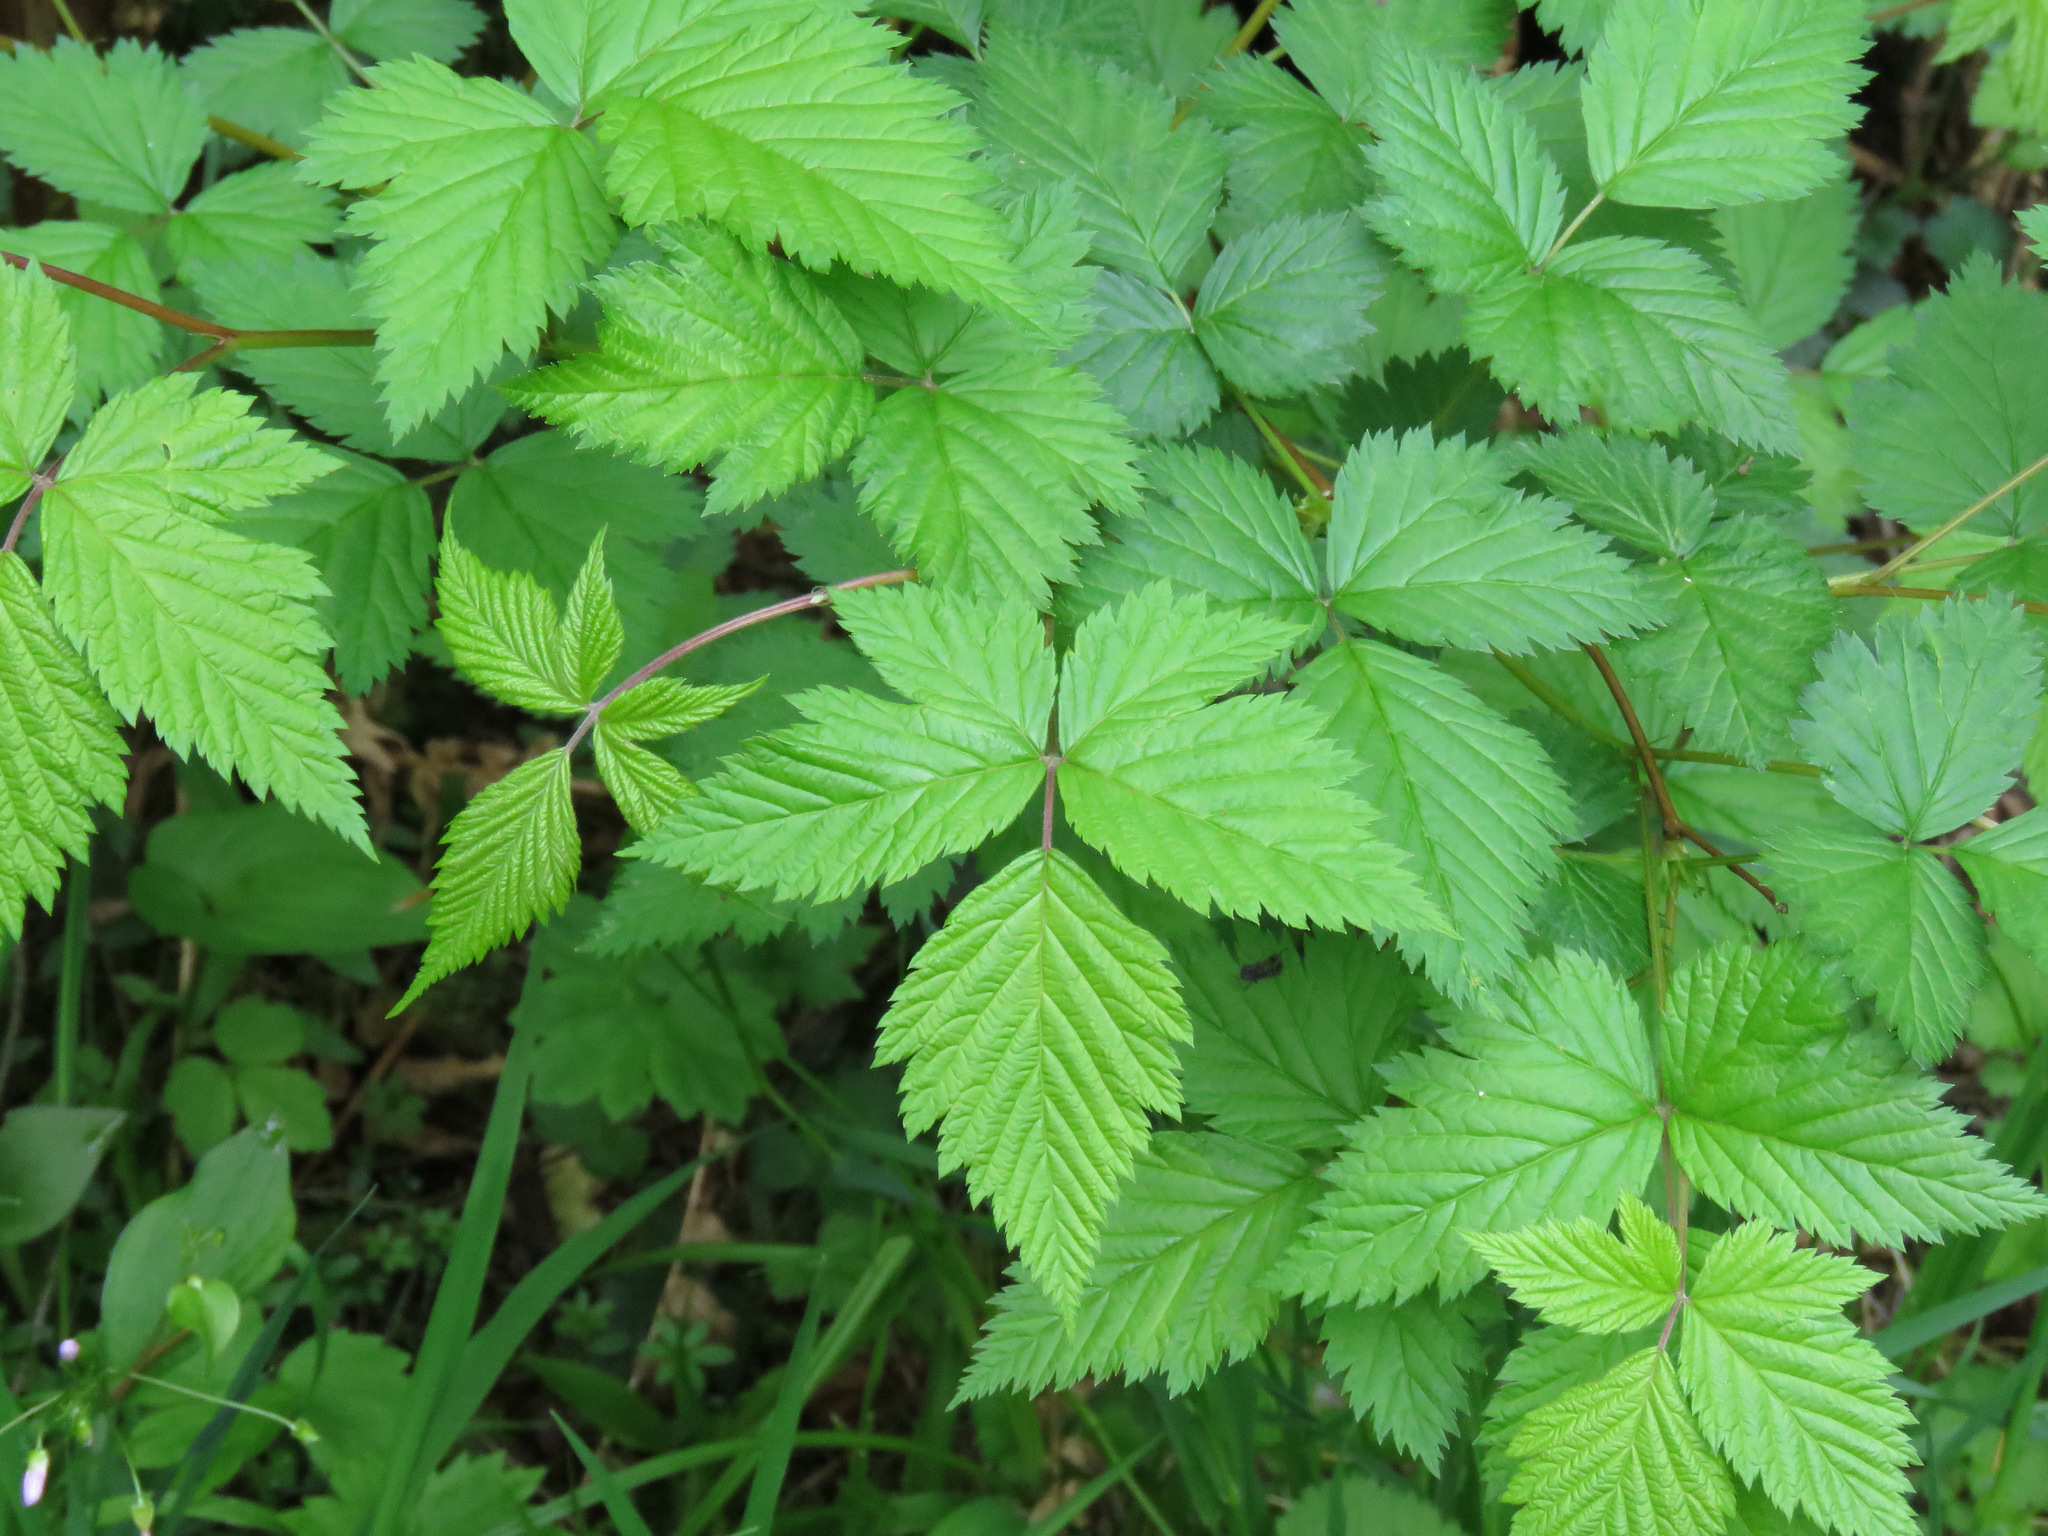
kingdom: Plantae
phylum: Tracheophyta
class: Magnoliopsida
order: Rosales
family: Rosaceae
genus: Rubus
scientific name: Rubus spectabilis
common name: Salmonberry
